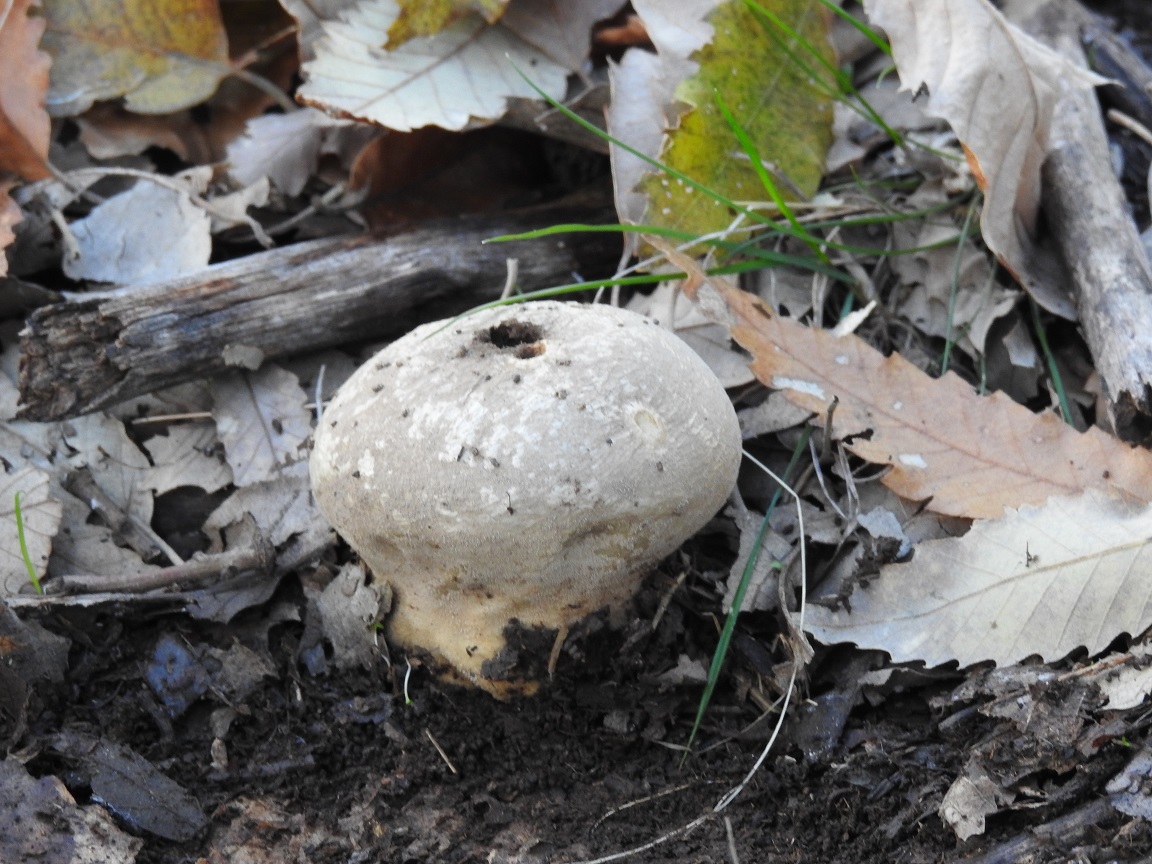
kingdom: Fungi
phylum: Basidiomycota
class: Agaricomycetes
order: Agaricales
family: Lycoperdaceae
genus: Lycoperdon
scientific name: Lycoperdon perlatum
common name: Common puffball
